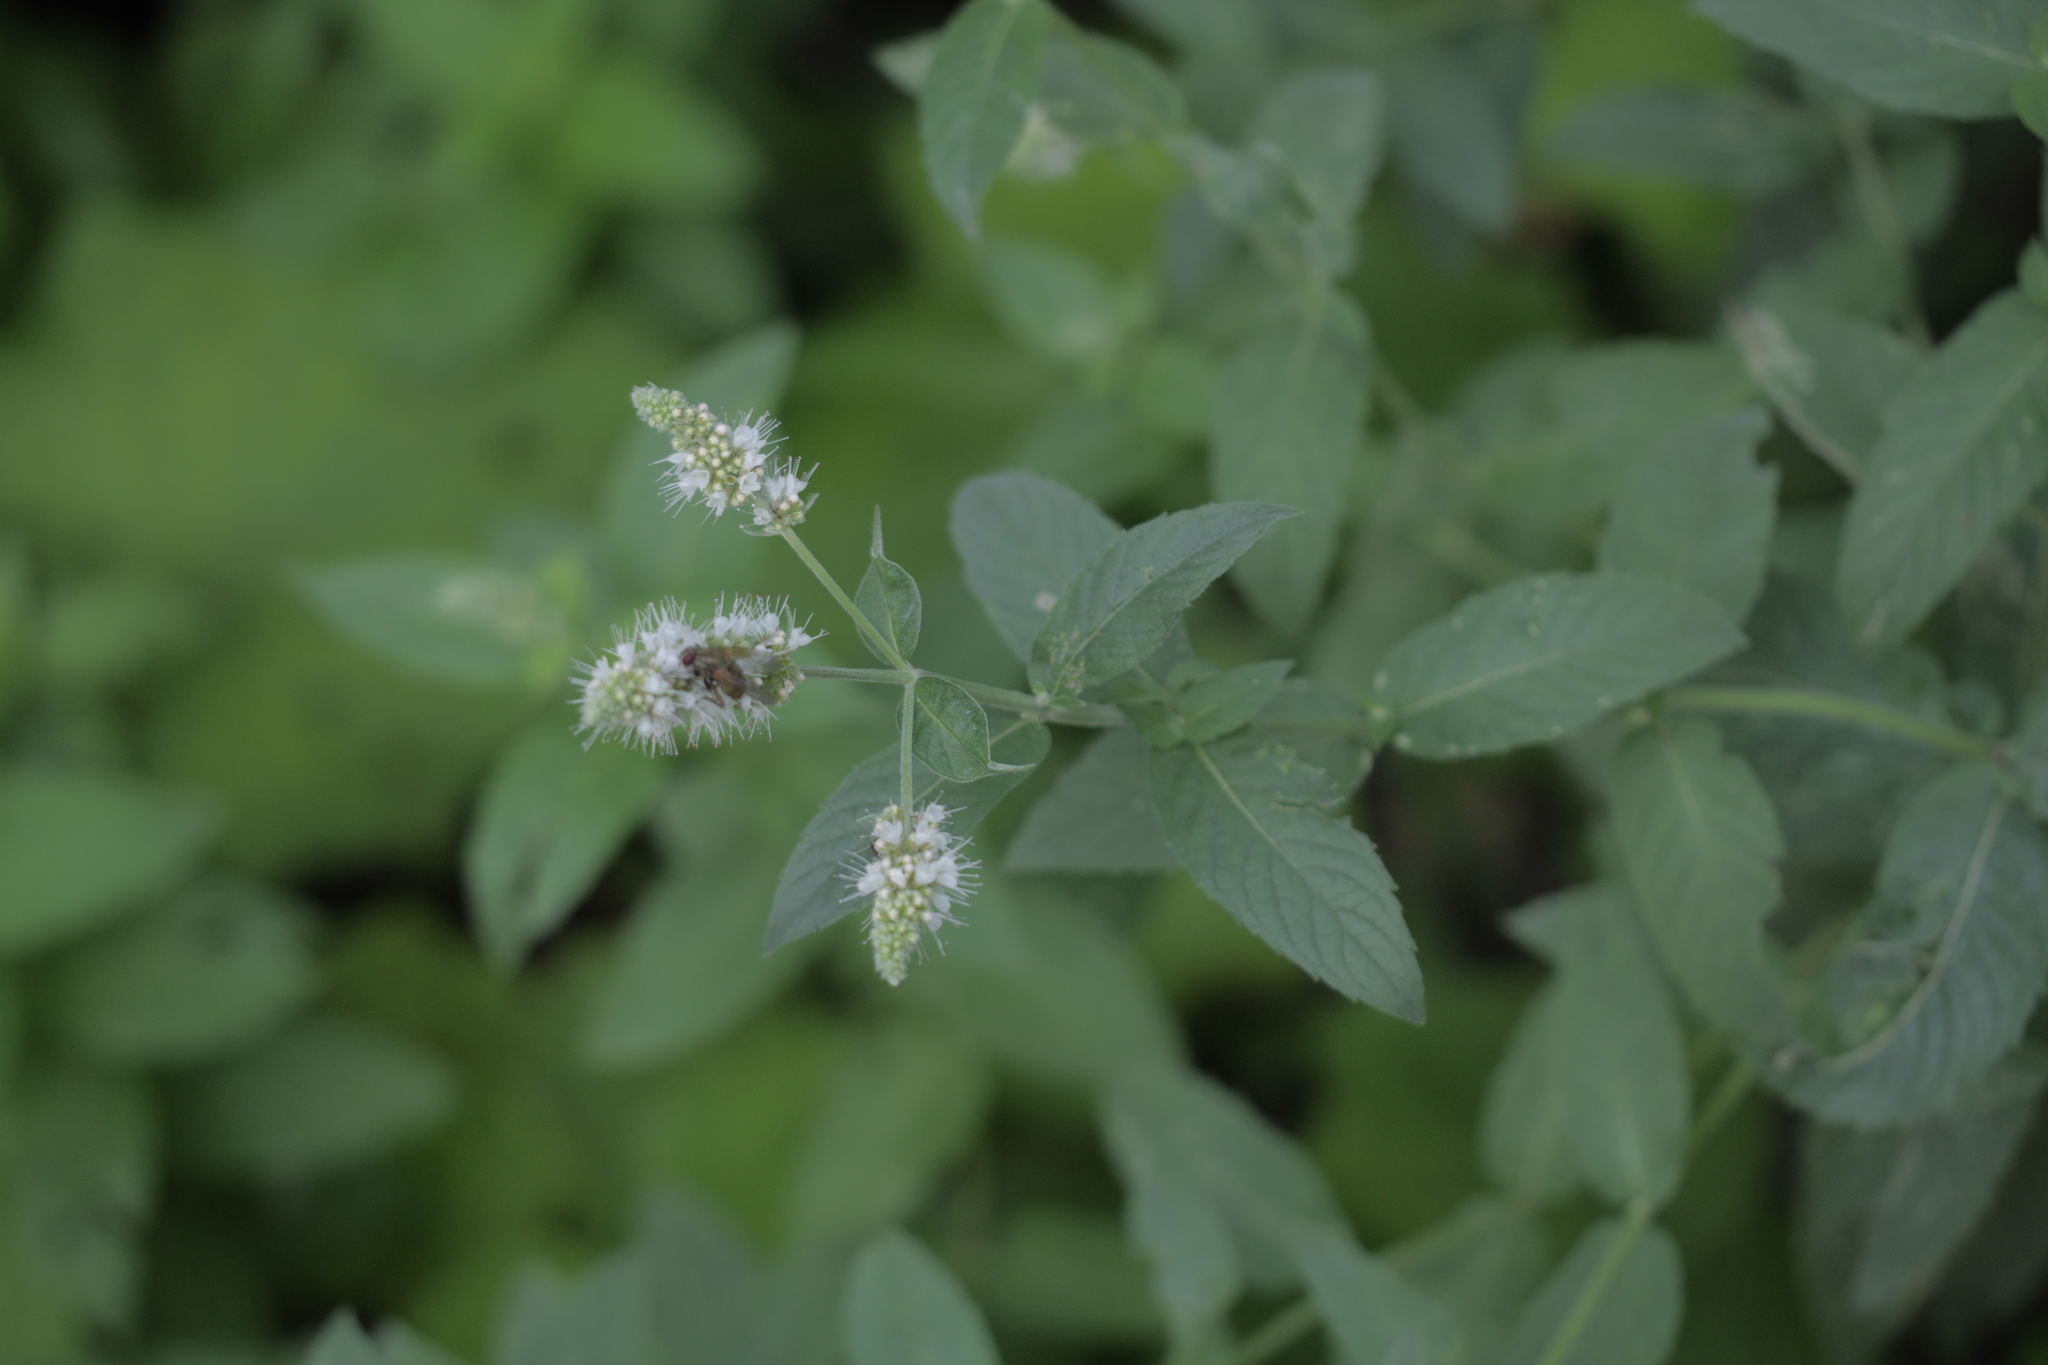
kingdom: Plantae
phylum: Tracheophyta
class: Magnoliopsida
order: Lamiales
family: Lamiaceae
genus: Mentha
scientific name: Mentha longifolia
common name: Horse mint
